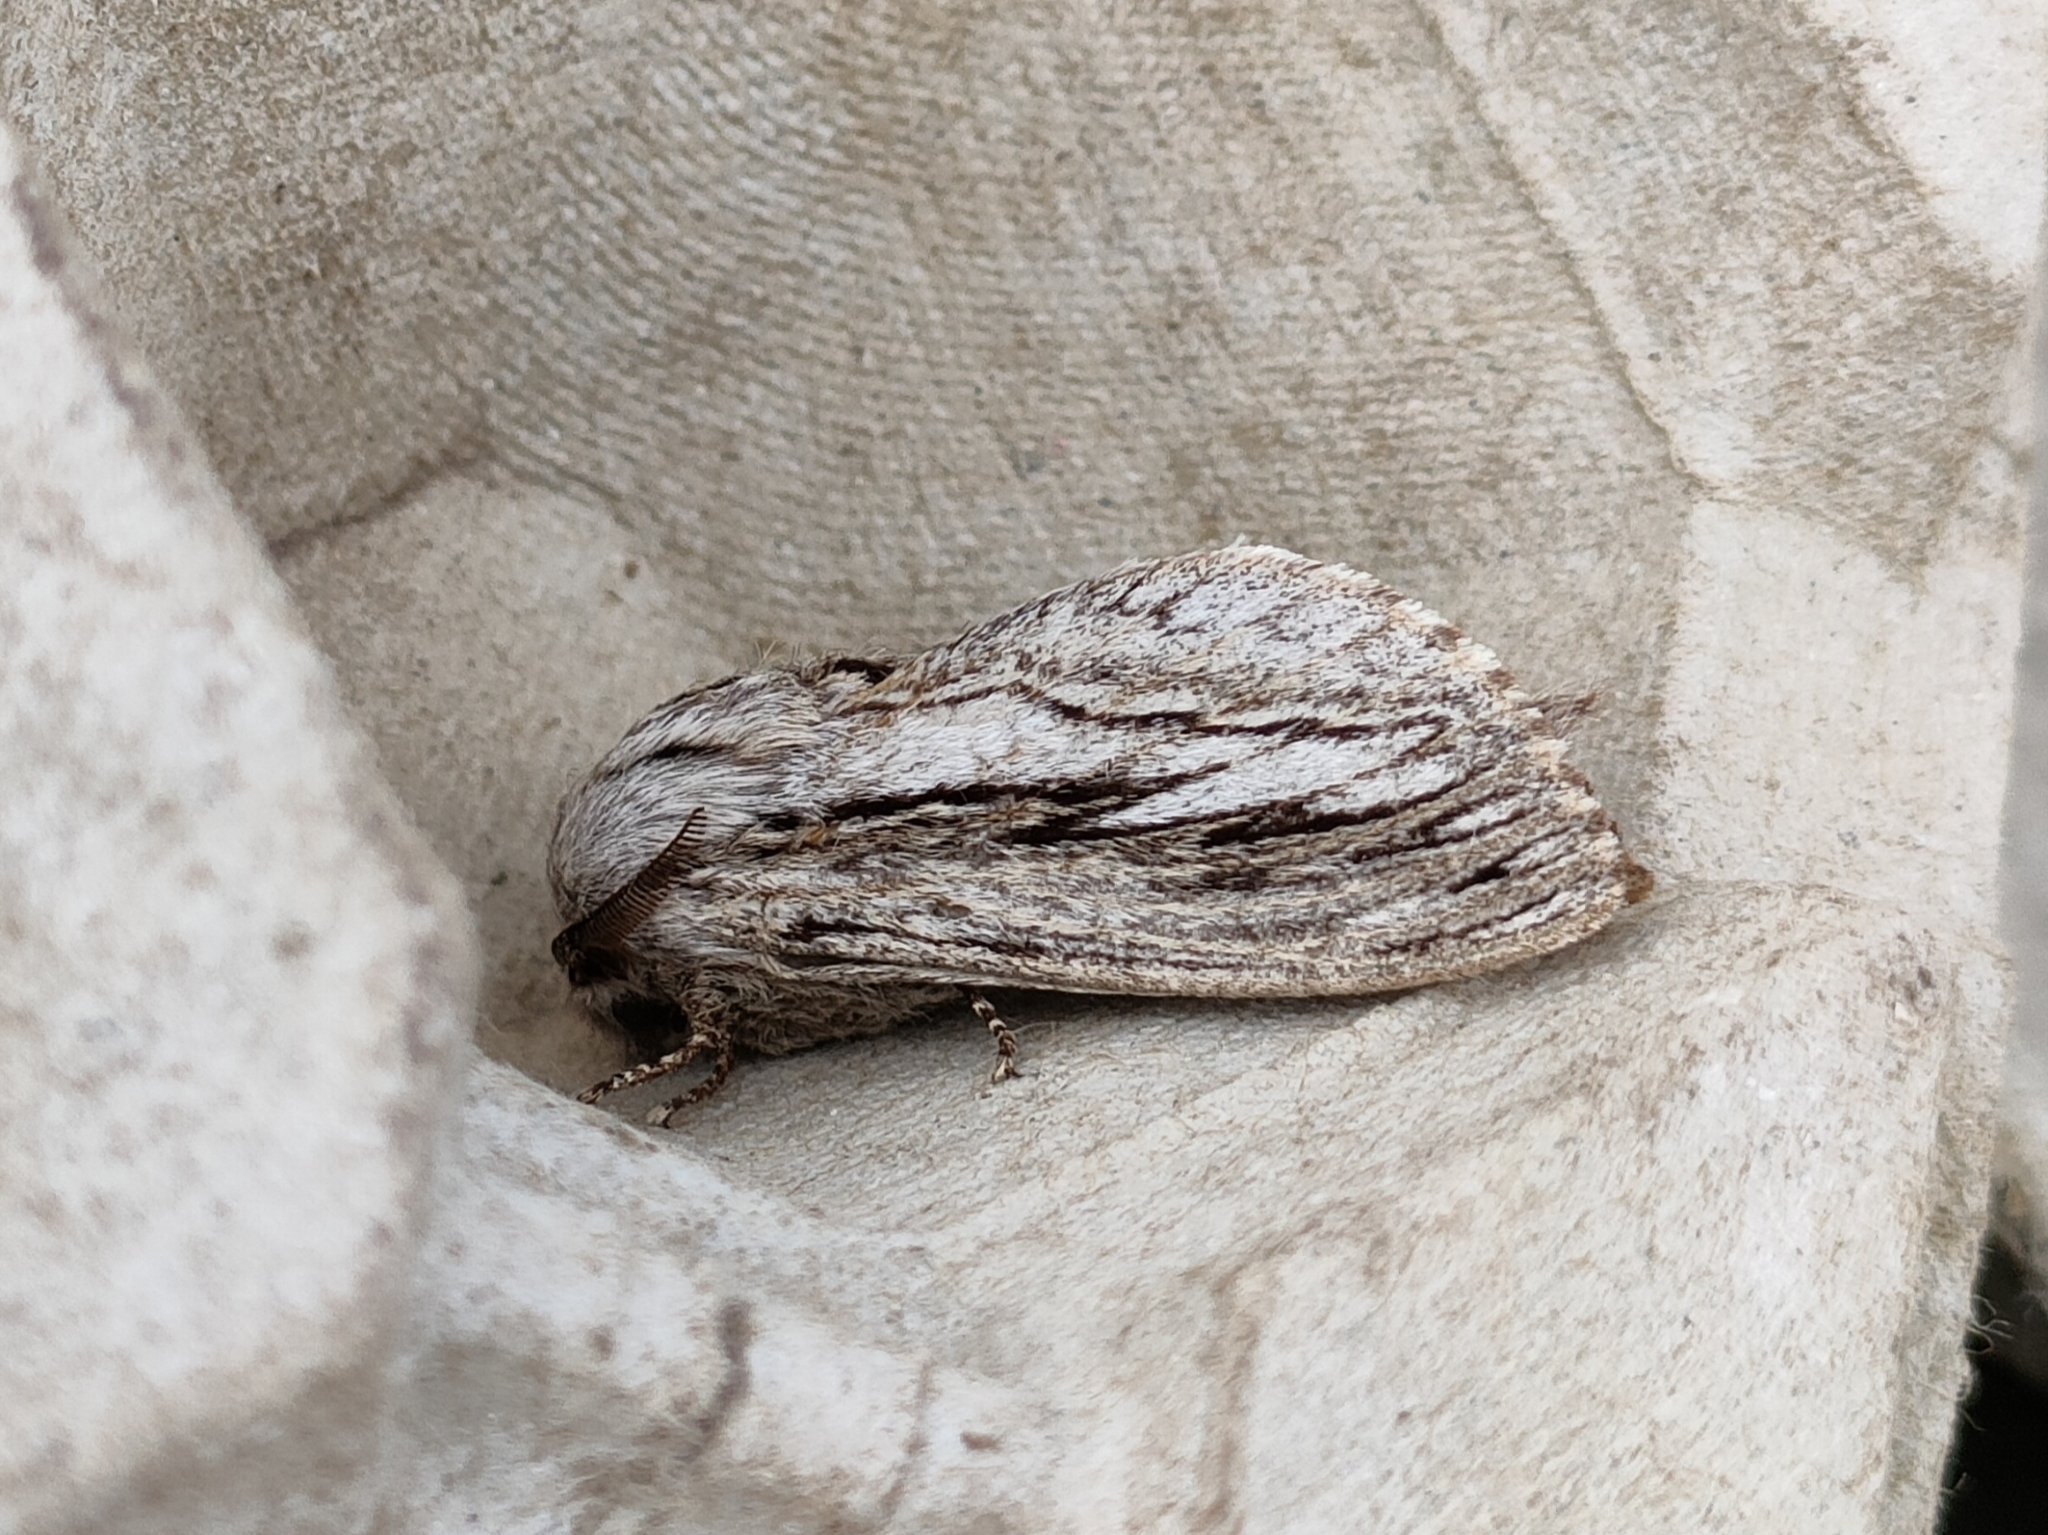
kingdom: Animalia
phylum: Arthropoda
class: Insecta
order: Lepidoptera
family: Lasiocampidae
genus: Gufria
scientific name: Gufria limosa
